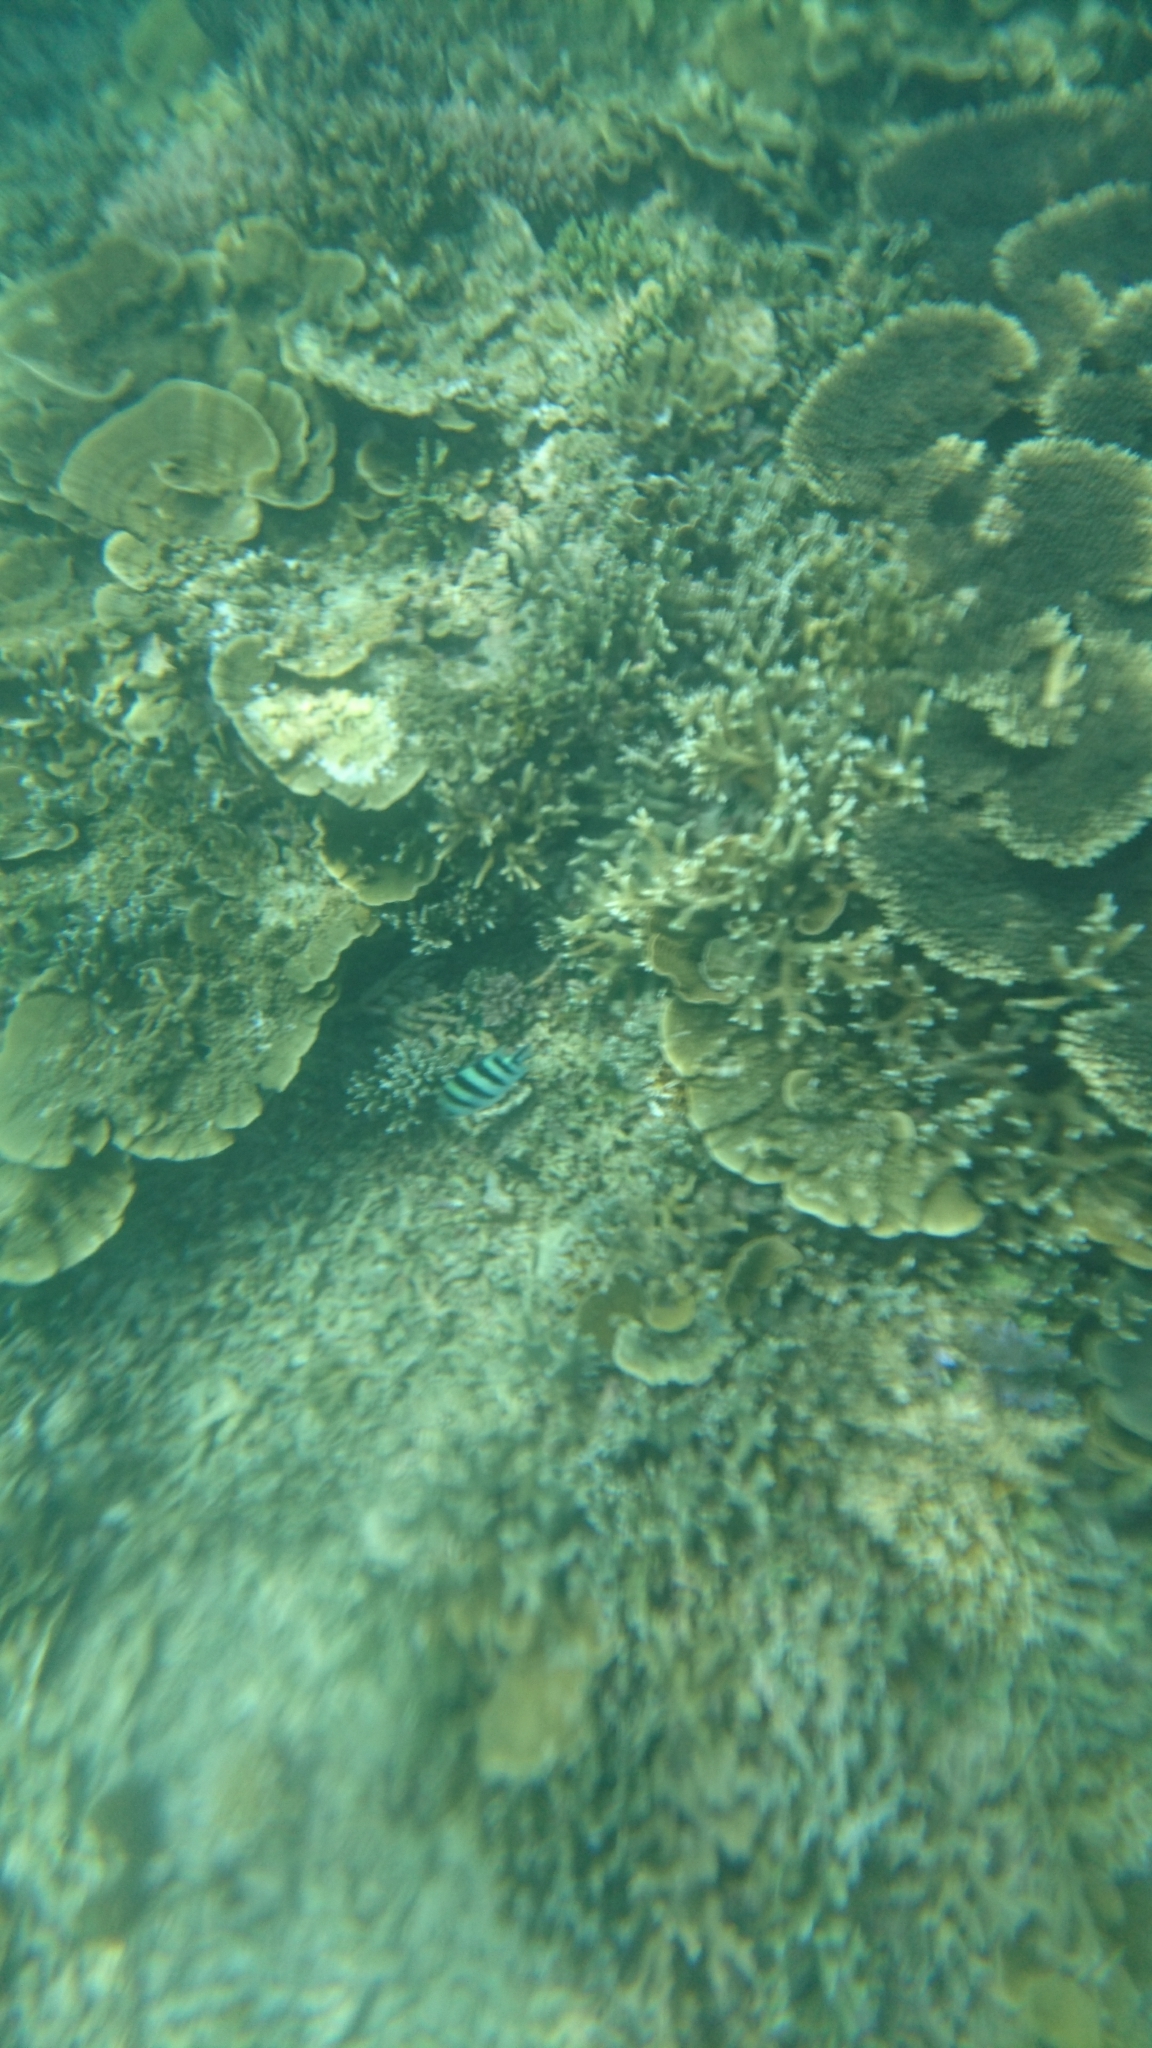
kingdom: Animalia
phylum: Chordata
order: Perciformes
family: Pomacentridae
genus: Abudefduf
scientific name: Abudefduf sexfasciatus
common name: Scissortail sergeant
